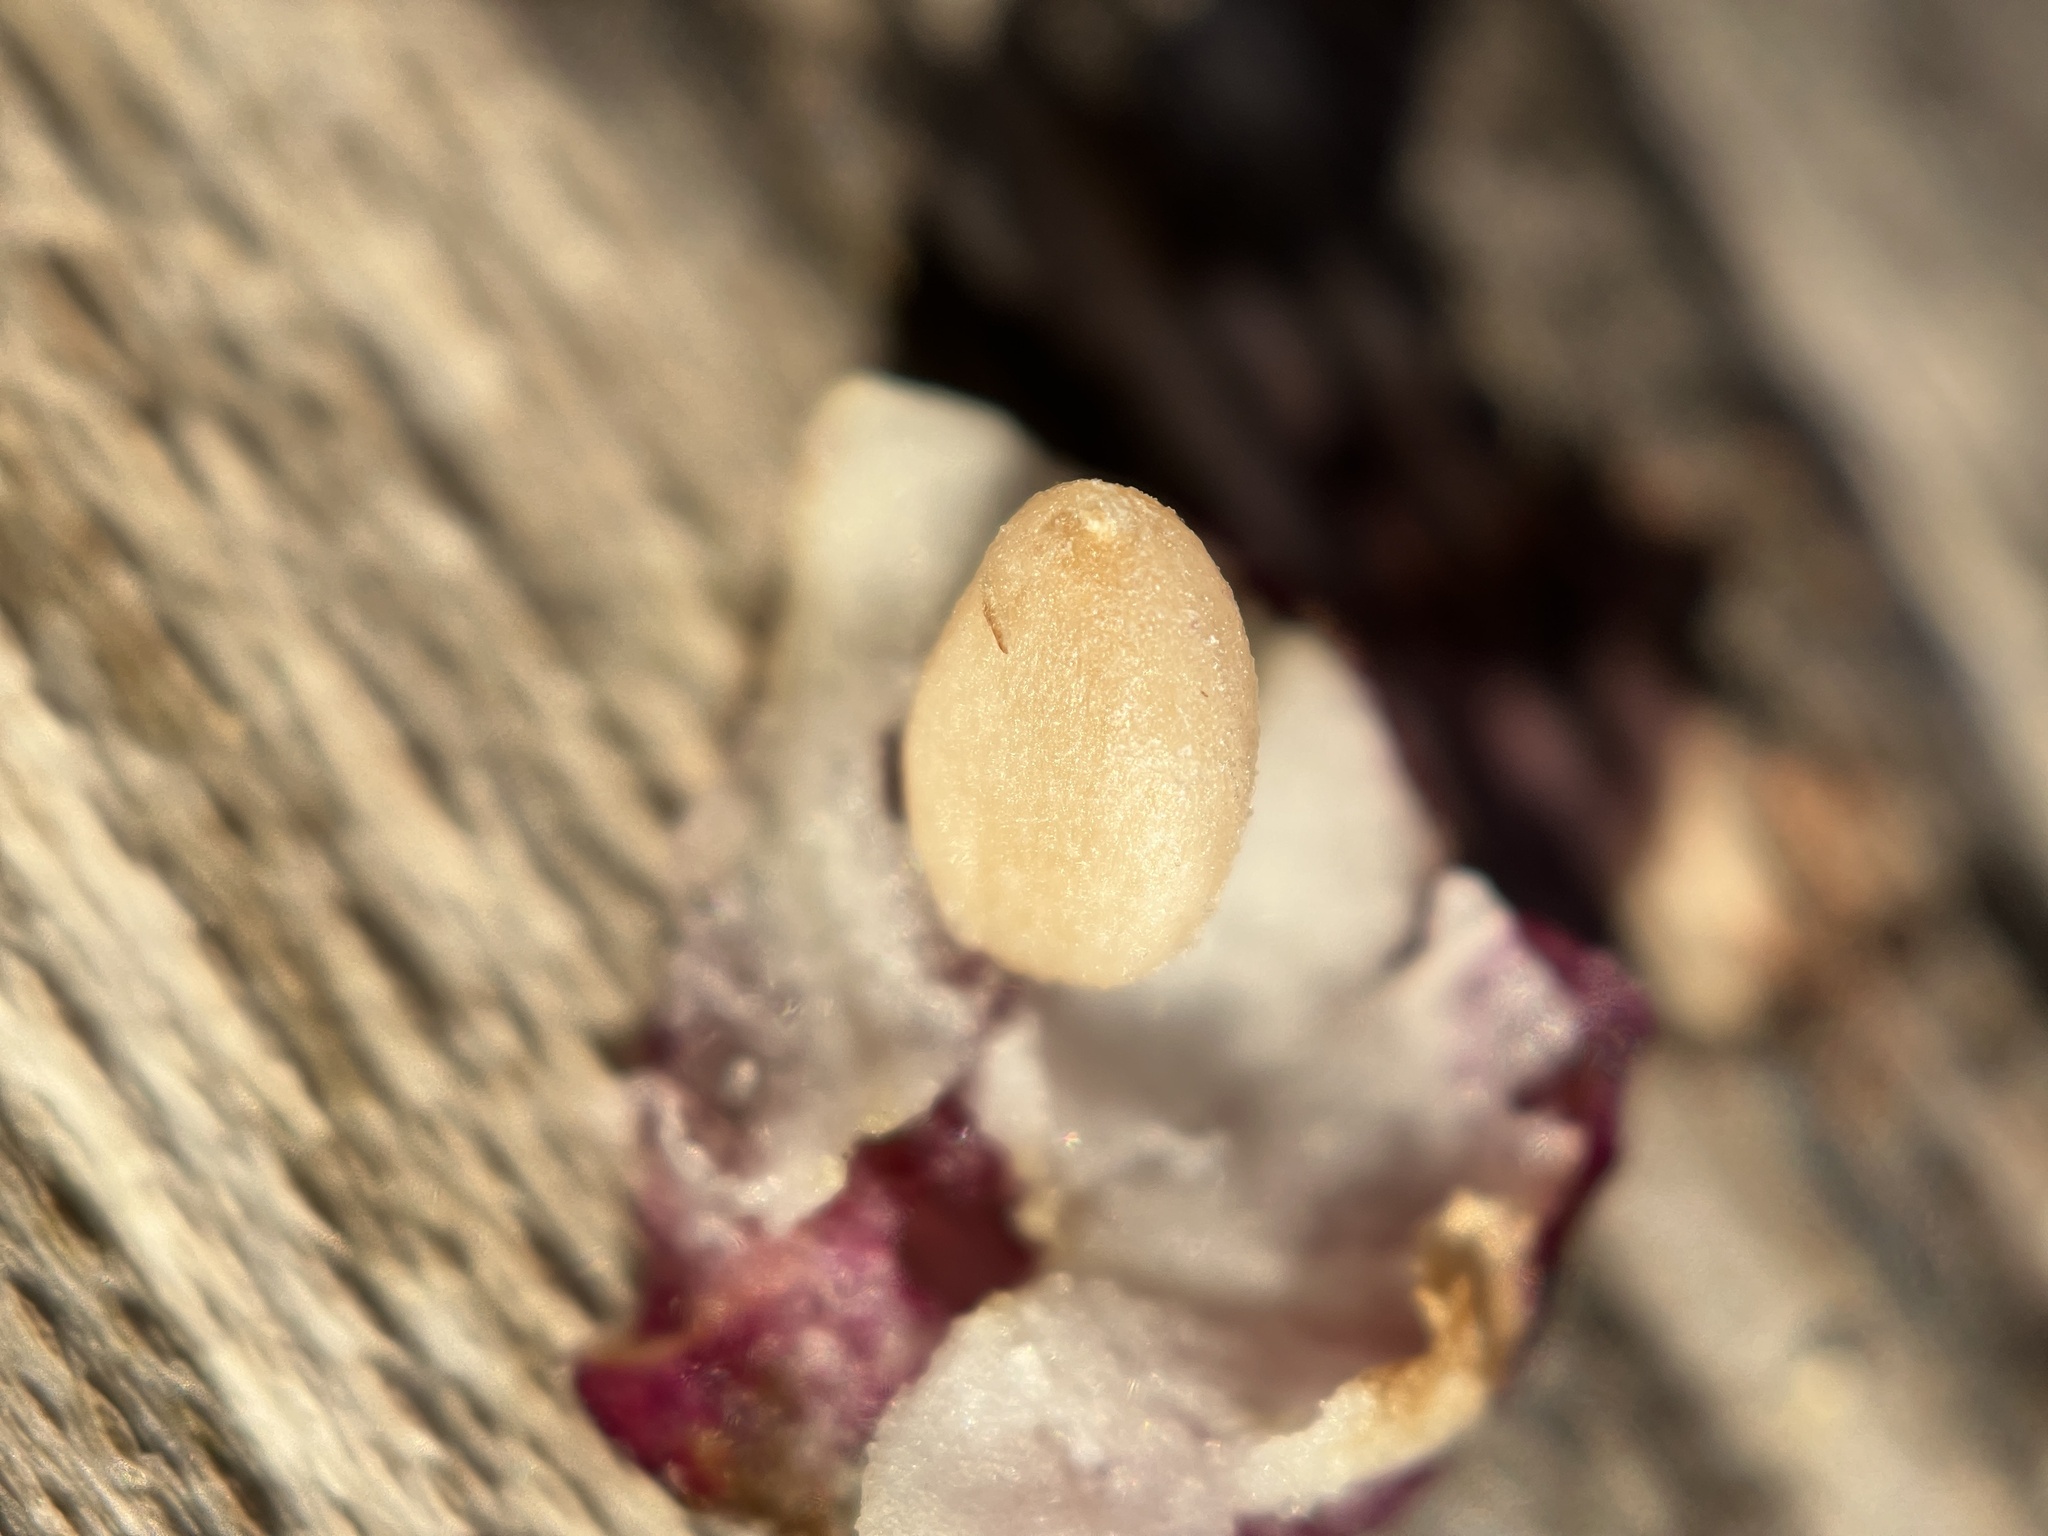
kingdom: Plantae
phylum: Tracheophyta
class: Magnoliopsida
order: Dipsacales
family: Caprifoliaceae
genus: Symphoricarpos
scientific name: Symphoricarpos orbiculatus
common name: Coralberry
